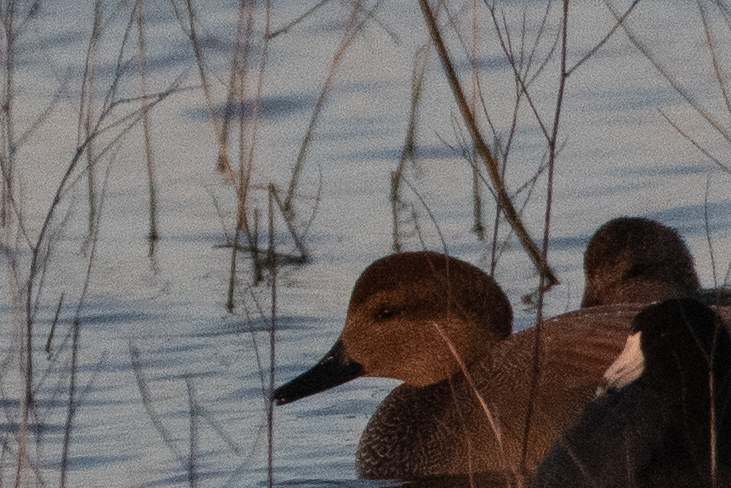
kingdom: Animalia
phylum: Chordata
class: Aves
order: Anseriformes
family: Anatidae
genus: Mareca
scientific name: Mareca strepera
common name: Gadwall
